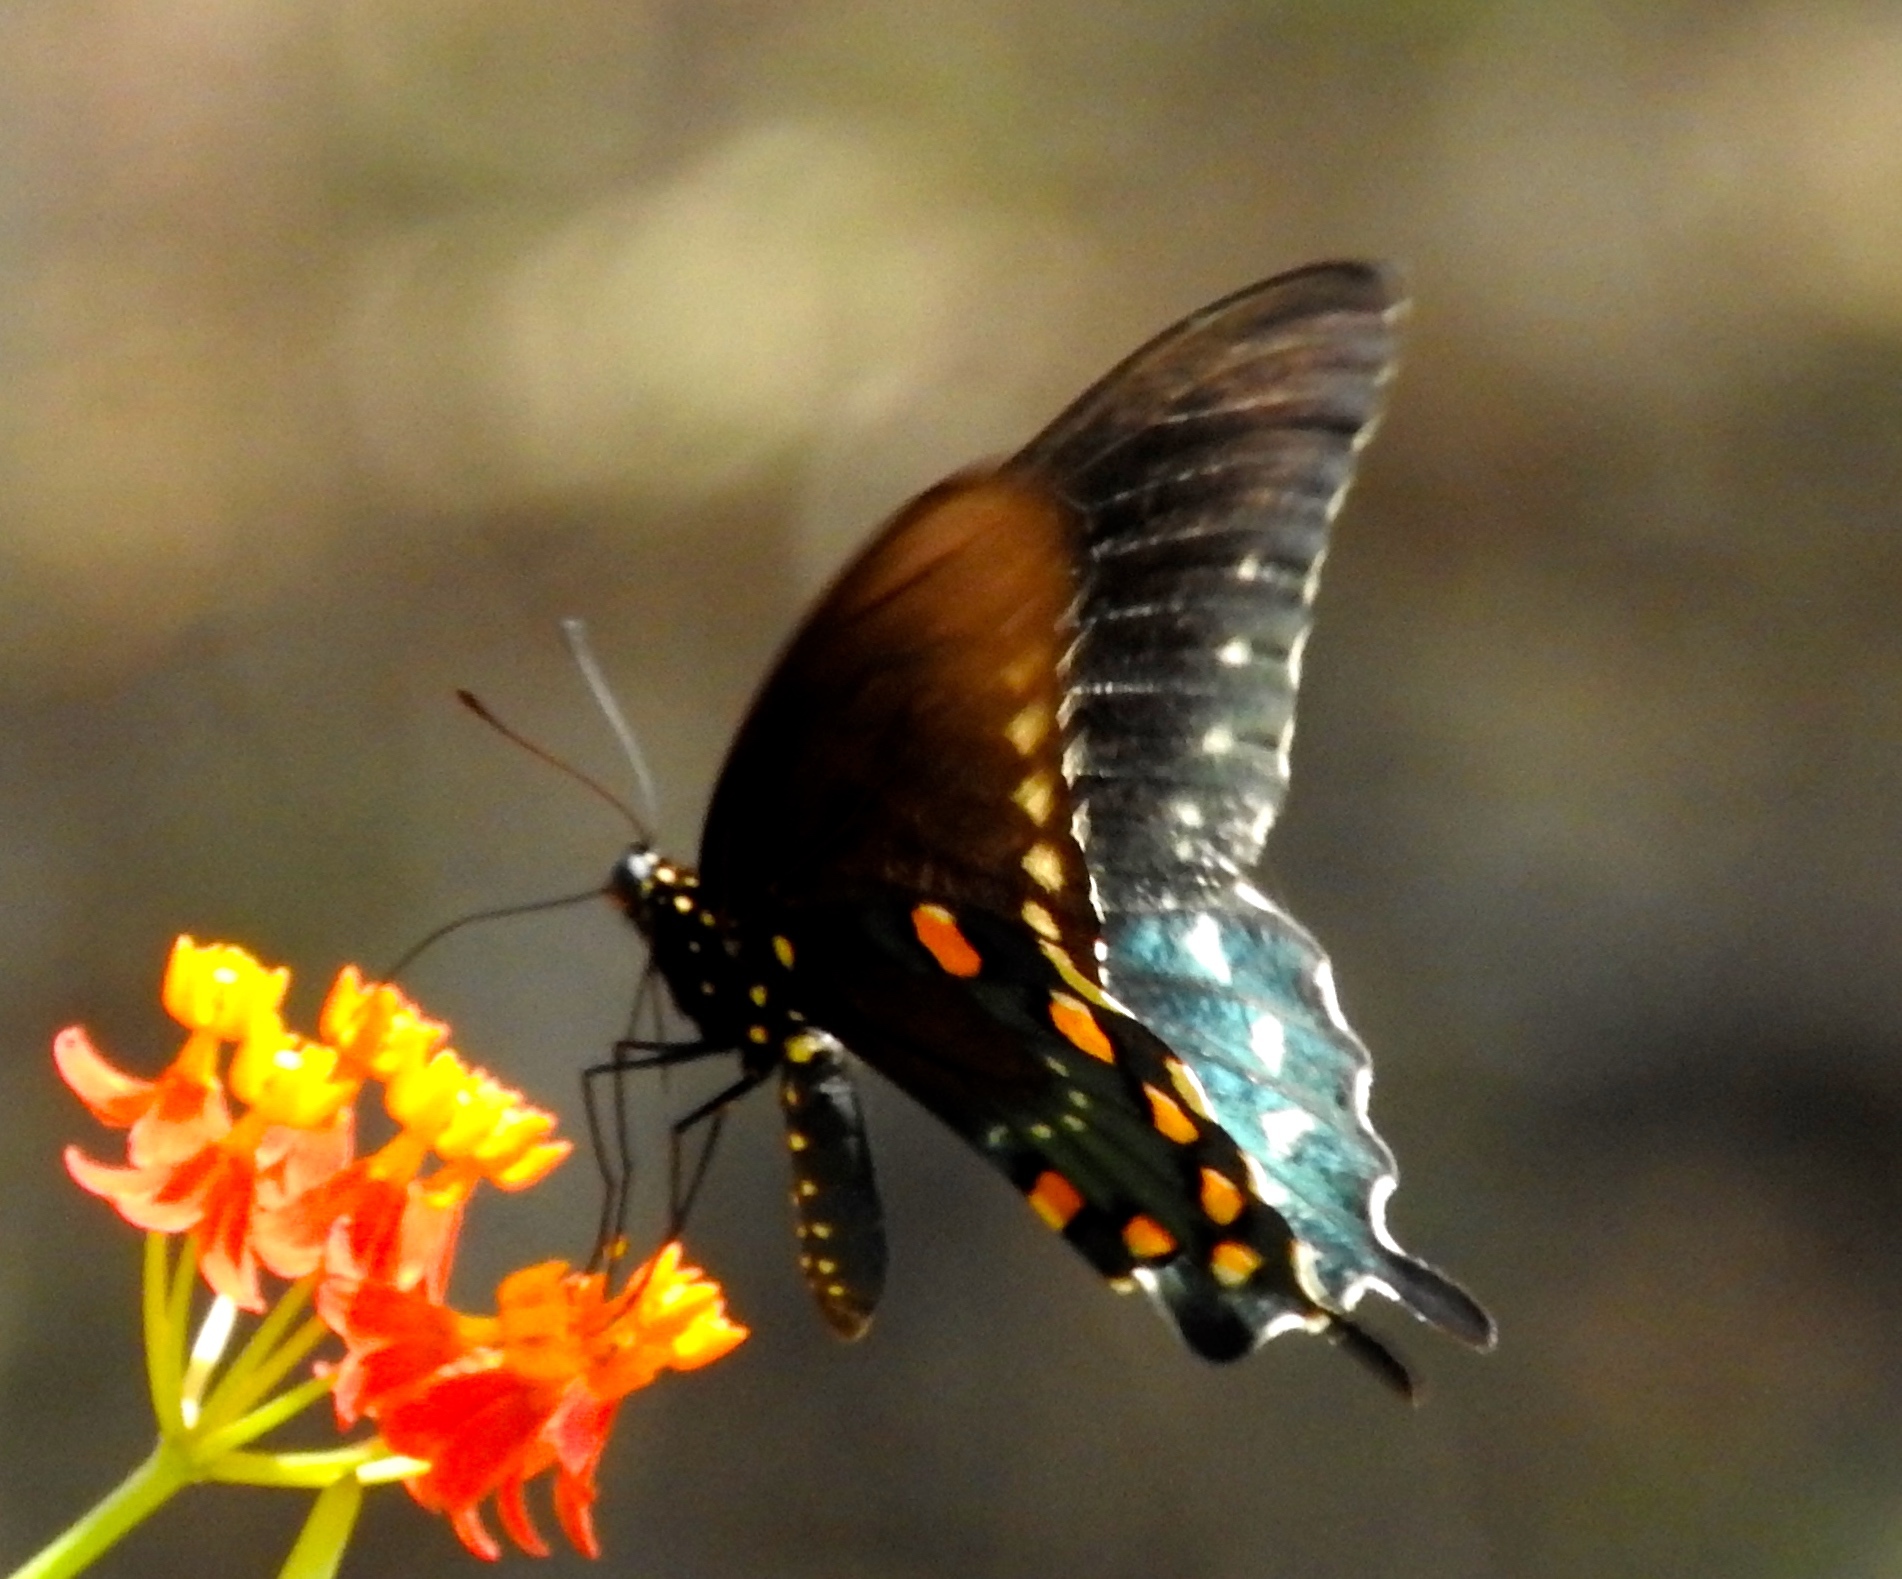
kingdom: Animalia
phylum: Arthropoda
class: Insecta
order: Lepidoptera
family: Papilionidae
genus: Battus
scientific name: Battus philenor
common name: Pipevine swallowtail
